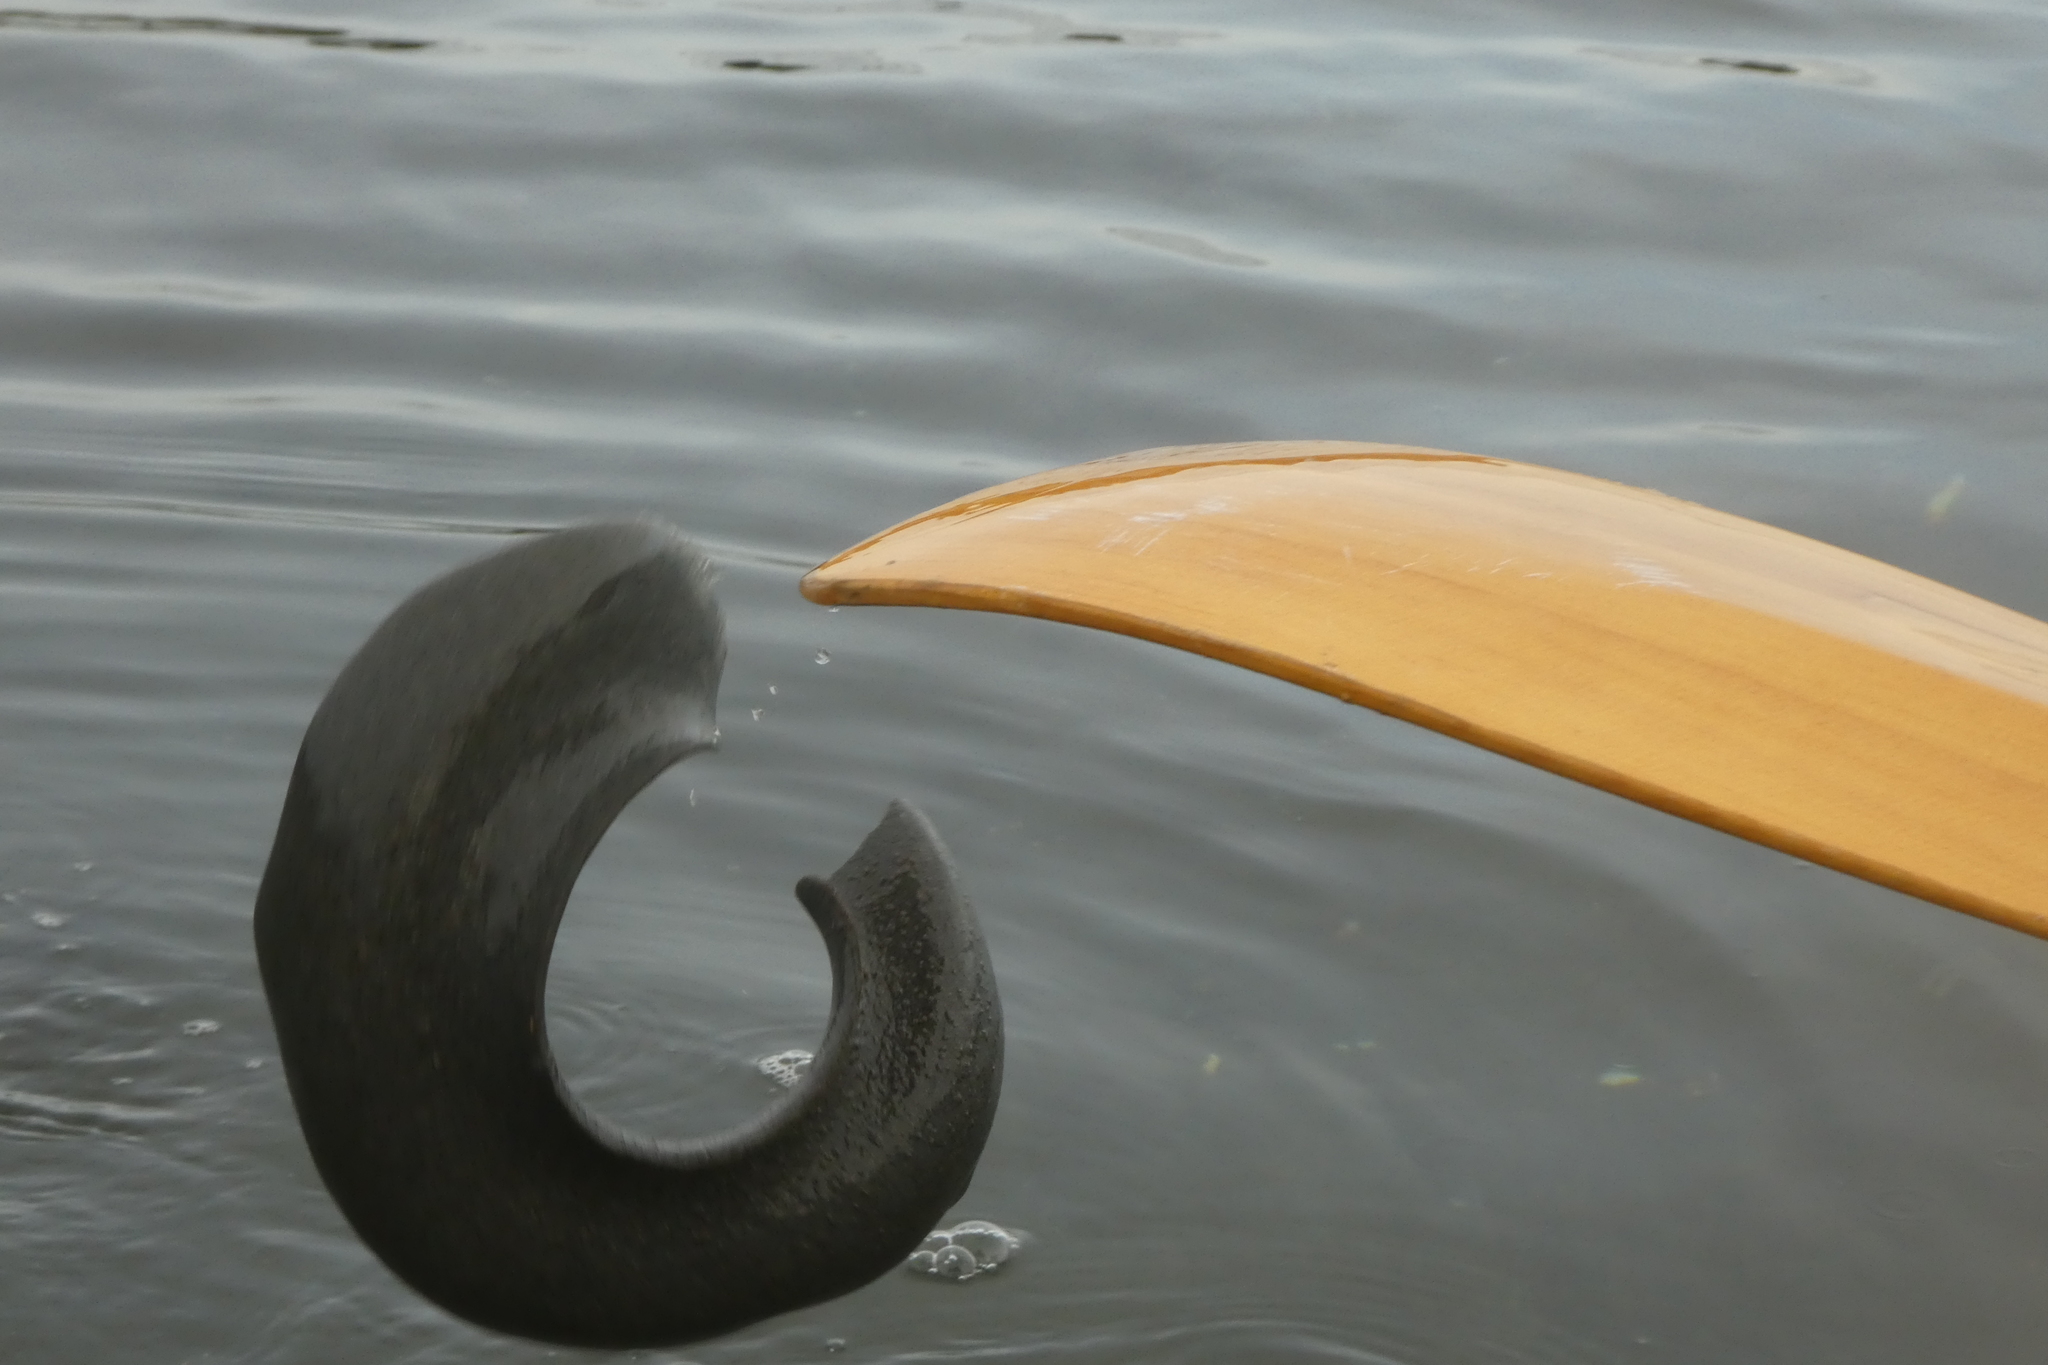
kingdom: Animalia
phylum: Mollusca
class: Gastropoda
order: Littorinimorpha
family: Naticidae
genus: Neverita
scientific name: Neverita lewisii
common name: Lewis' moonsnail
